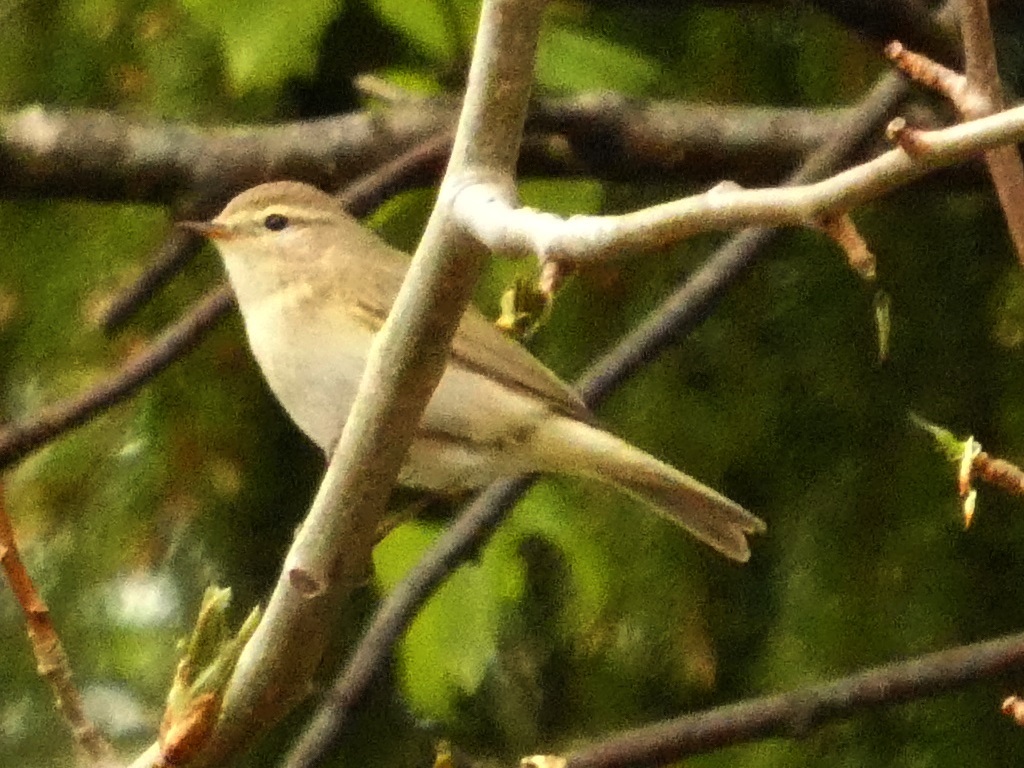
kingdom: Animalia
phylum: Chordata
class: Aves
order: Passeriformes
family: Phylloscopidae
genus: Phylloscopus
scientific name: Phylloscopus trochilus
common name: Willow warbler
